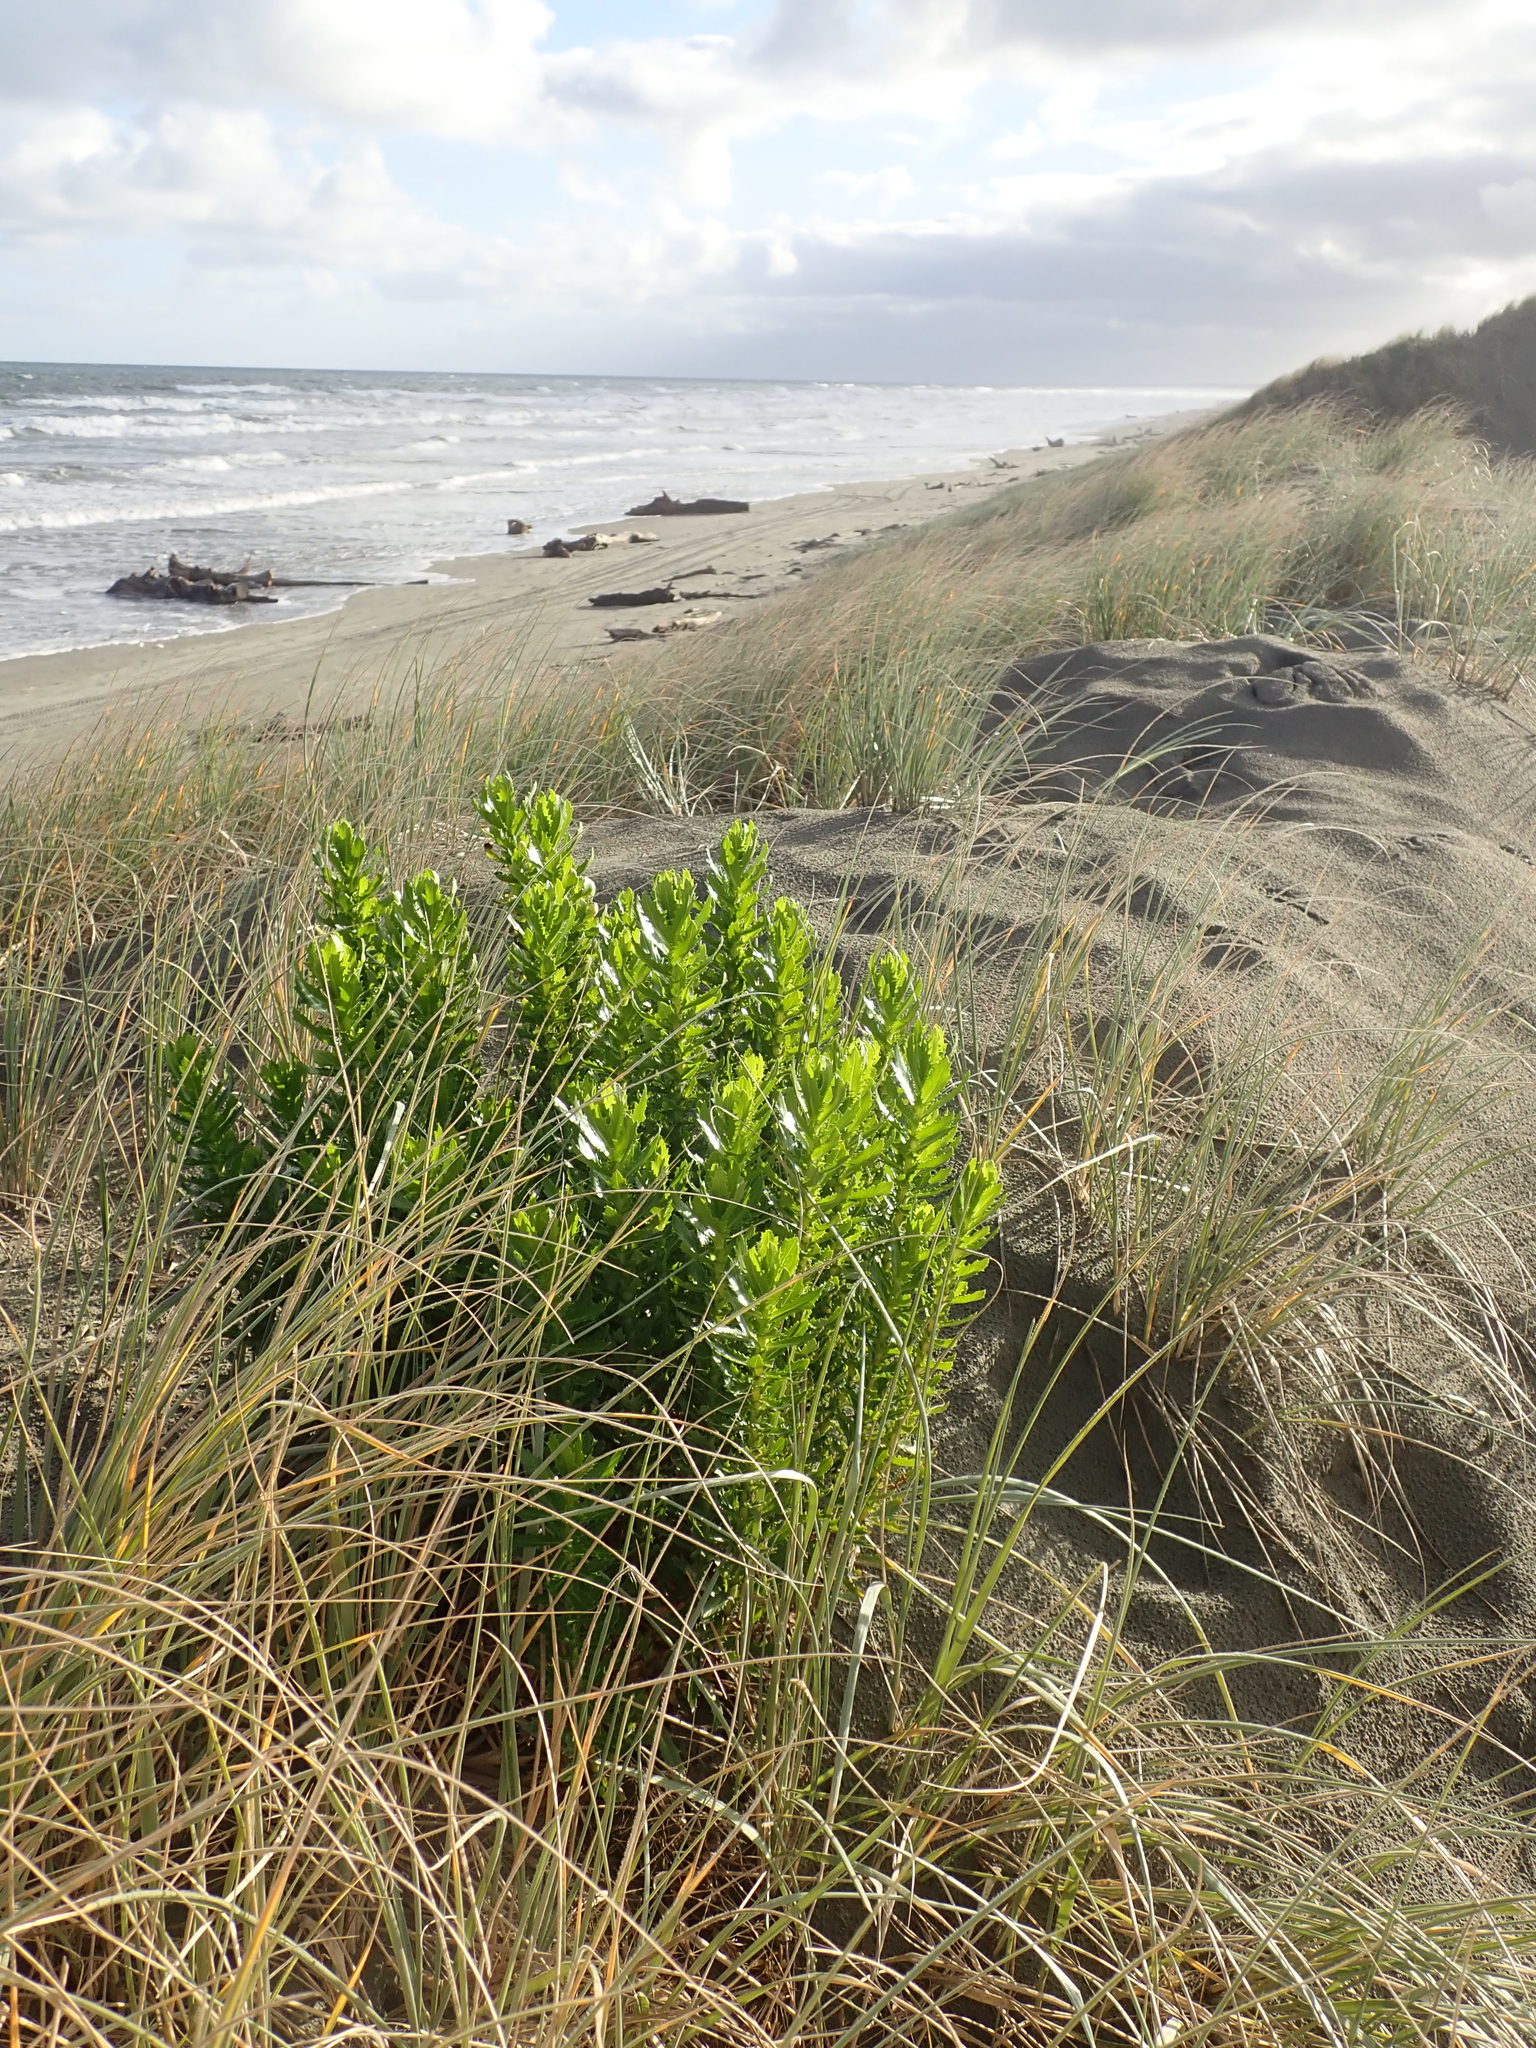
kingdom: Plantae
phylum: Tracheophyta
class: Magnoliopsida
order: Asterales
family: Asteraceae
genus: Senecio
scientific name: Senecio glastifolius
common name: Woad-leaved ragwort
